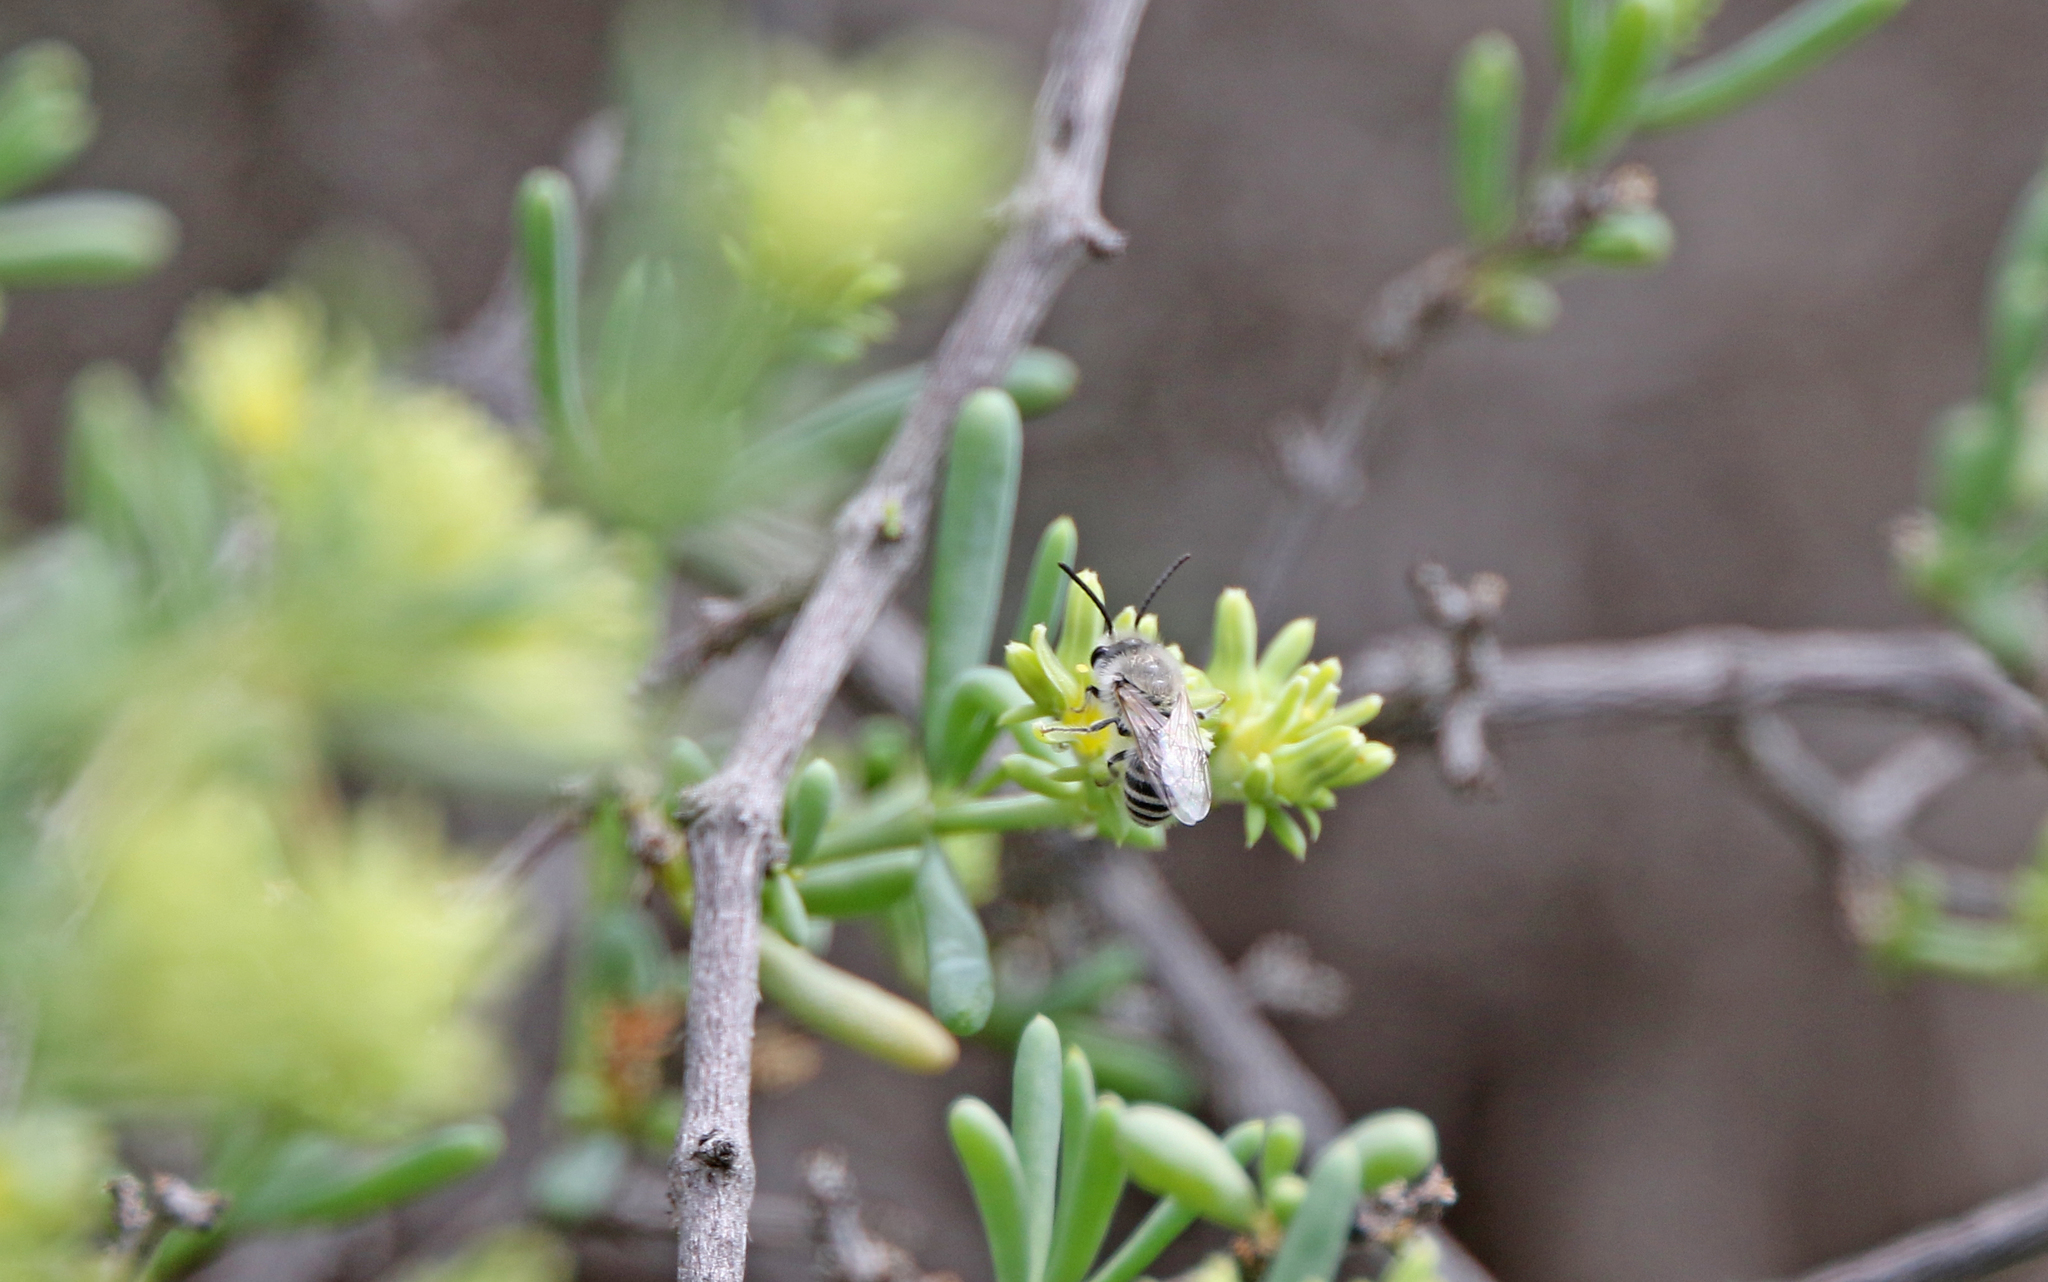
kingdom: Animalia
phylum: Arthropoda
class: Insecta
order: Hymenoptera
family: Colletidae
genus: Colletes
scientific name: Colletes moricei
